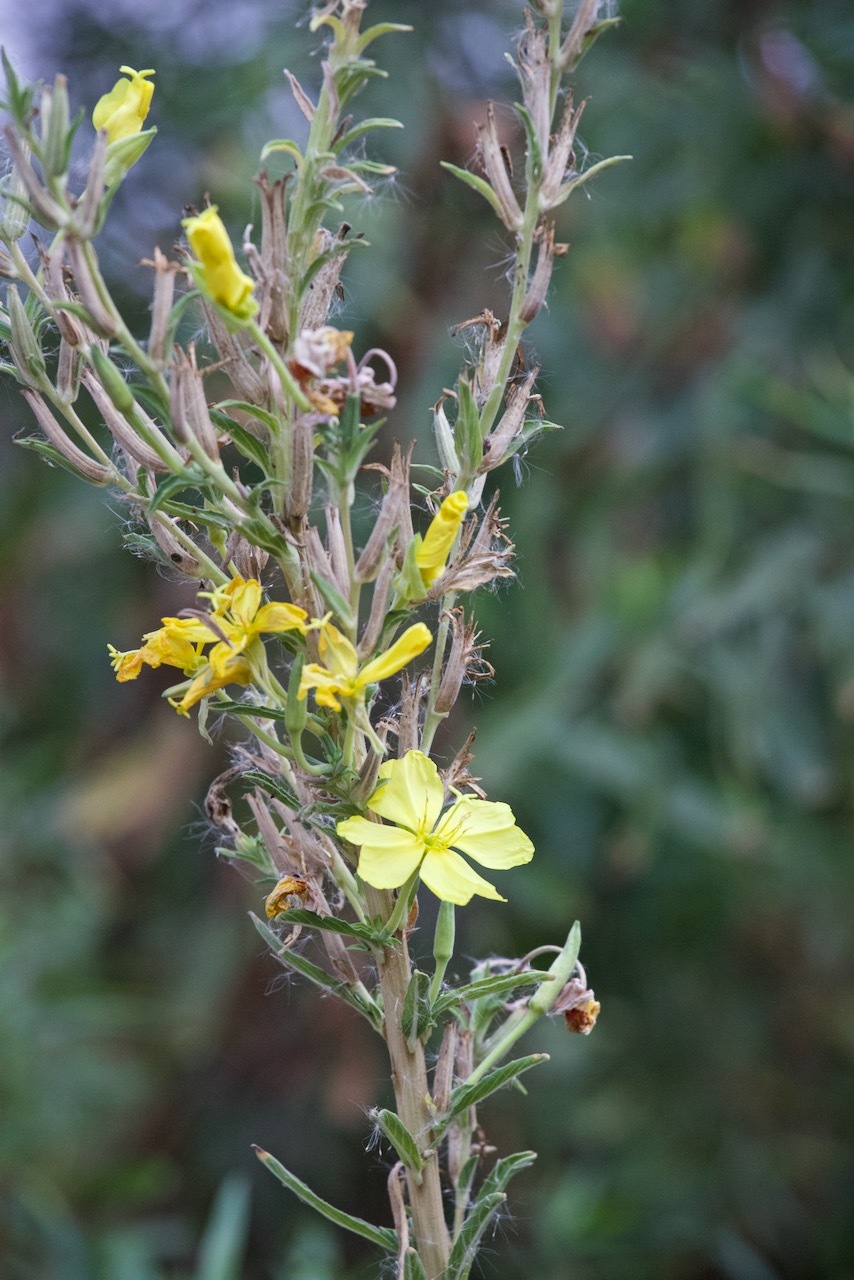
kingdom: Plantae
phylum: Tracheophyta
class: Magnoliopsida
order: Myrtales
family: Onagraceae
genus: Oenothera
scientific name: Oenothera elata
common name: Hooker's evening-primrose
